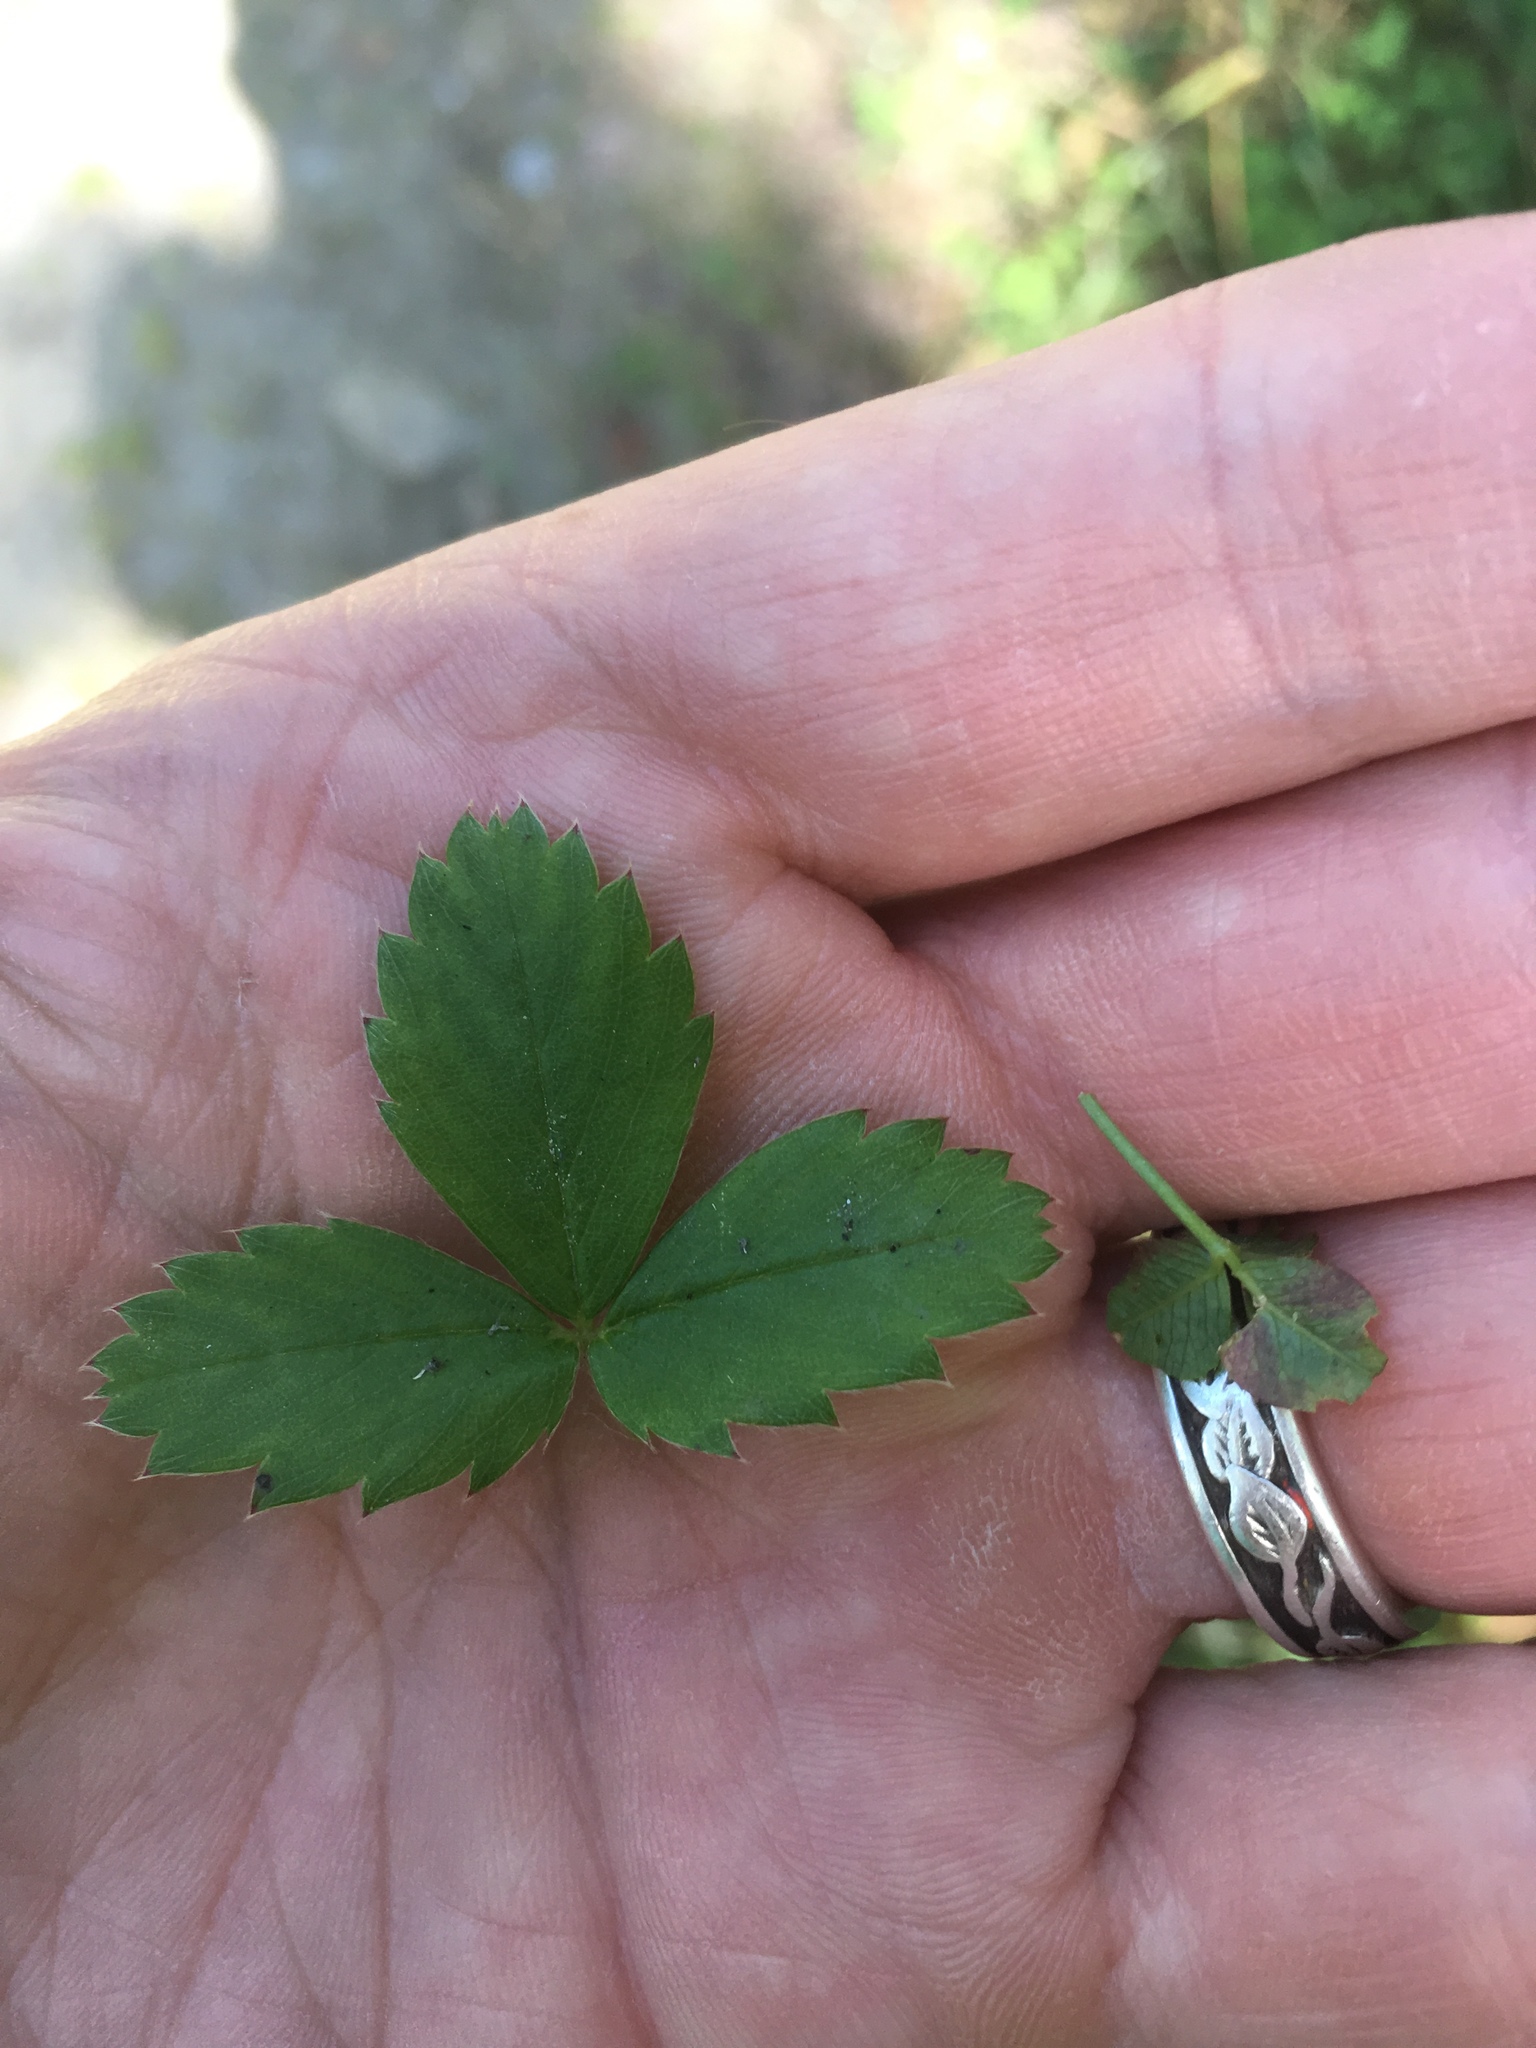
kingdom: Plantae
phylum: Tracheophyta
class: Magnoliopsida
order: Rosales
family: Rosaceae
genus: Fragaria
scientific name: Fragaria virginiana
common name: Thickleaved wild strawberry
